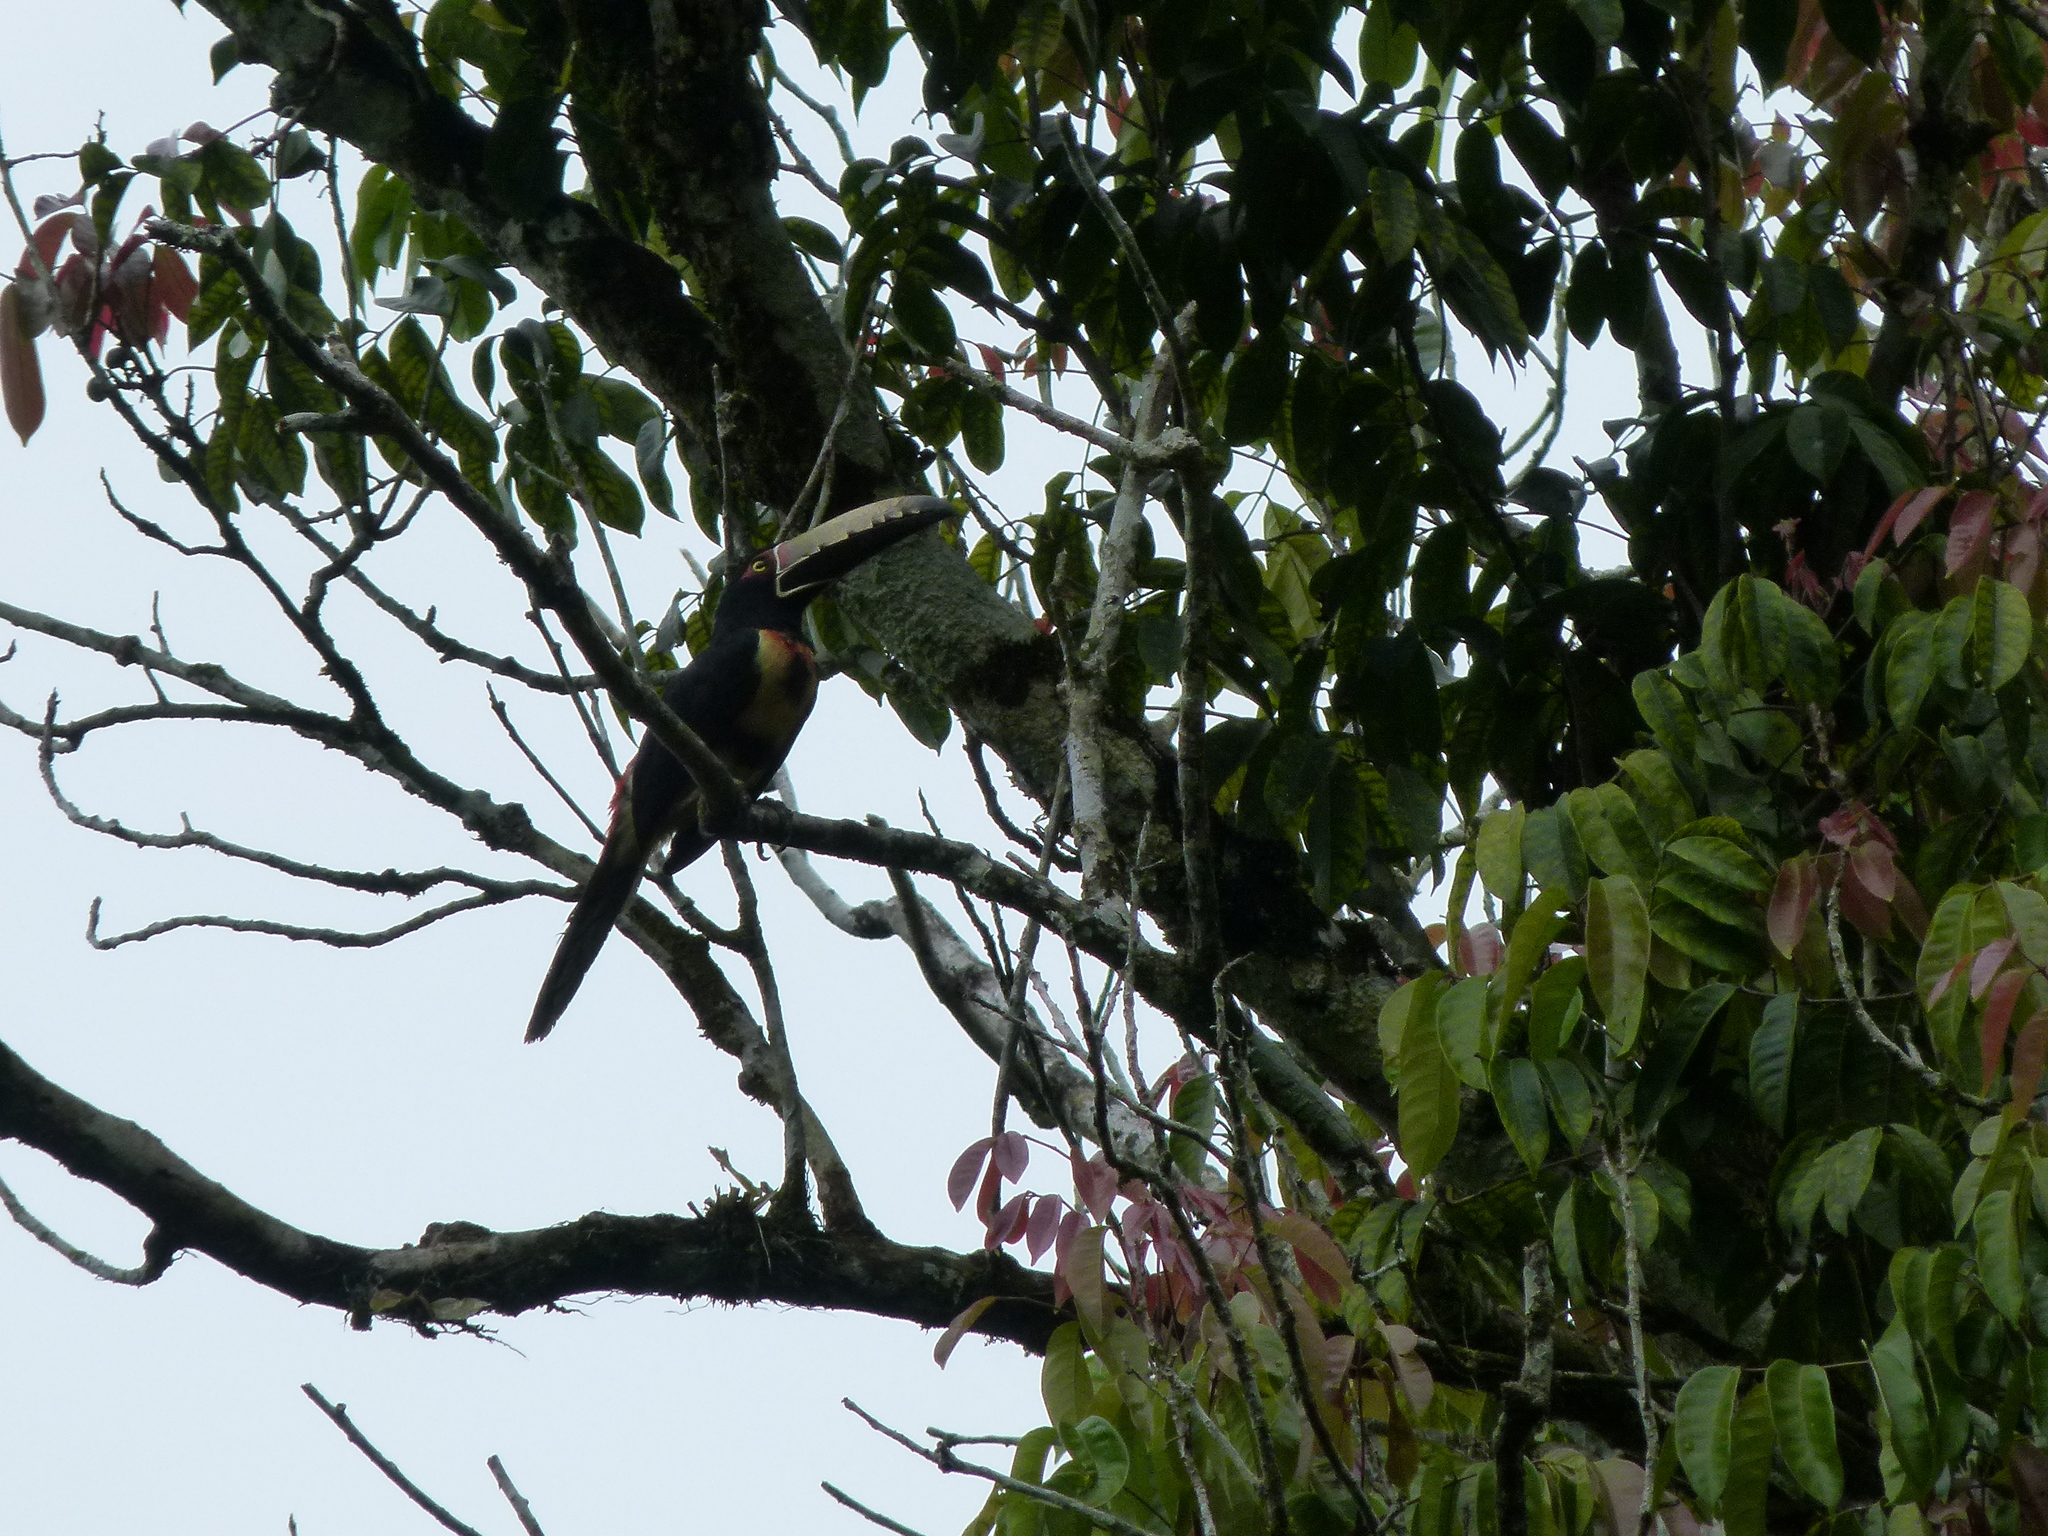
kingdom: Animalia
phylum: Chordata
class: Aves
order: Piciformes
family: Ramphastidae
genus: Pteroglossus
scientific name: Pteroglossus torquatus
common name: Collared aracari
